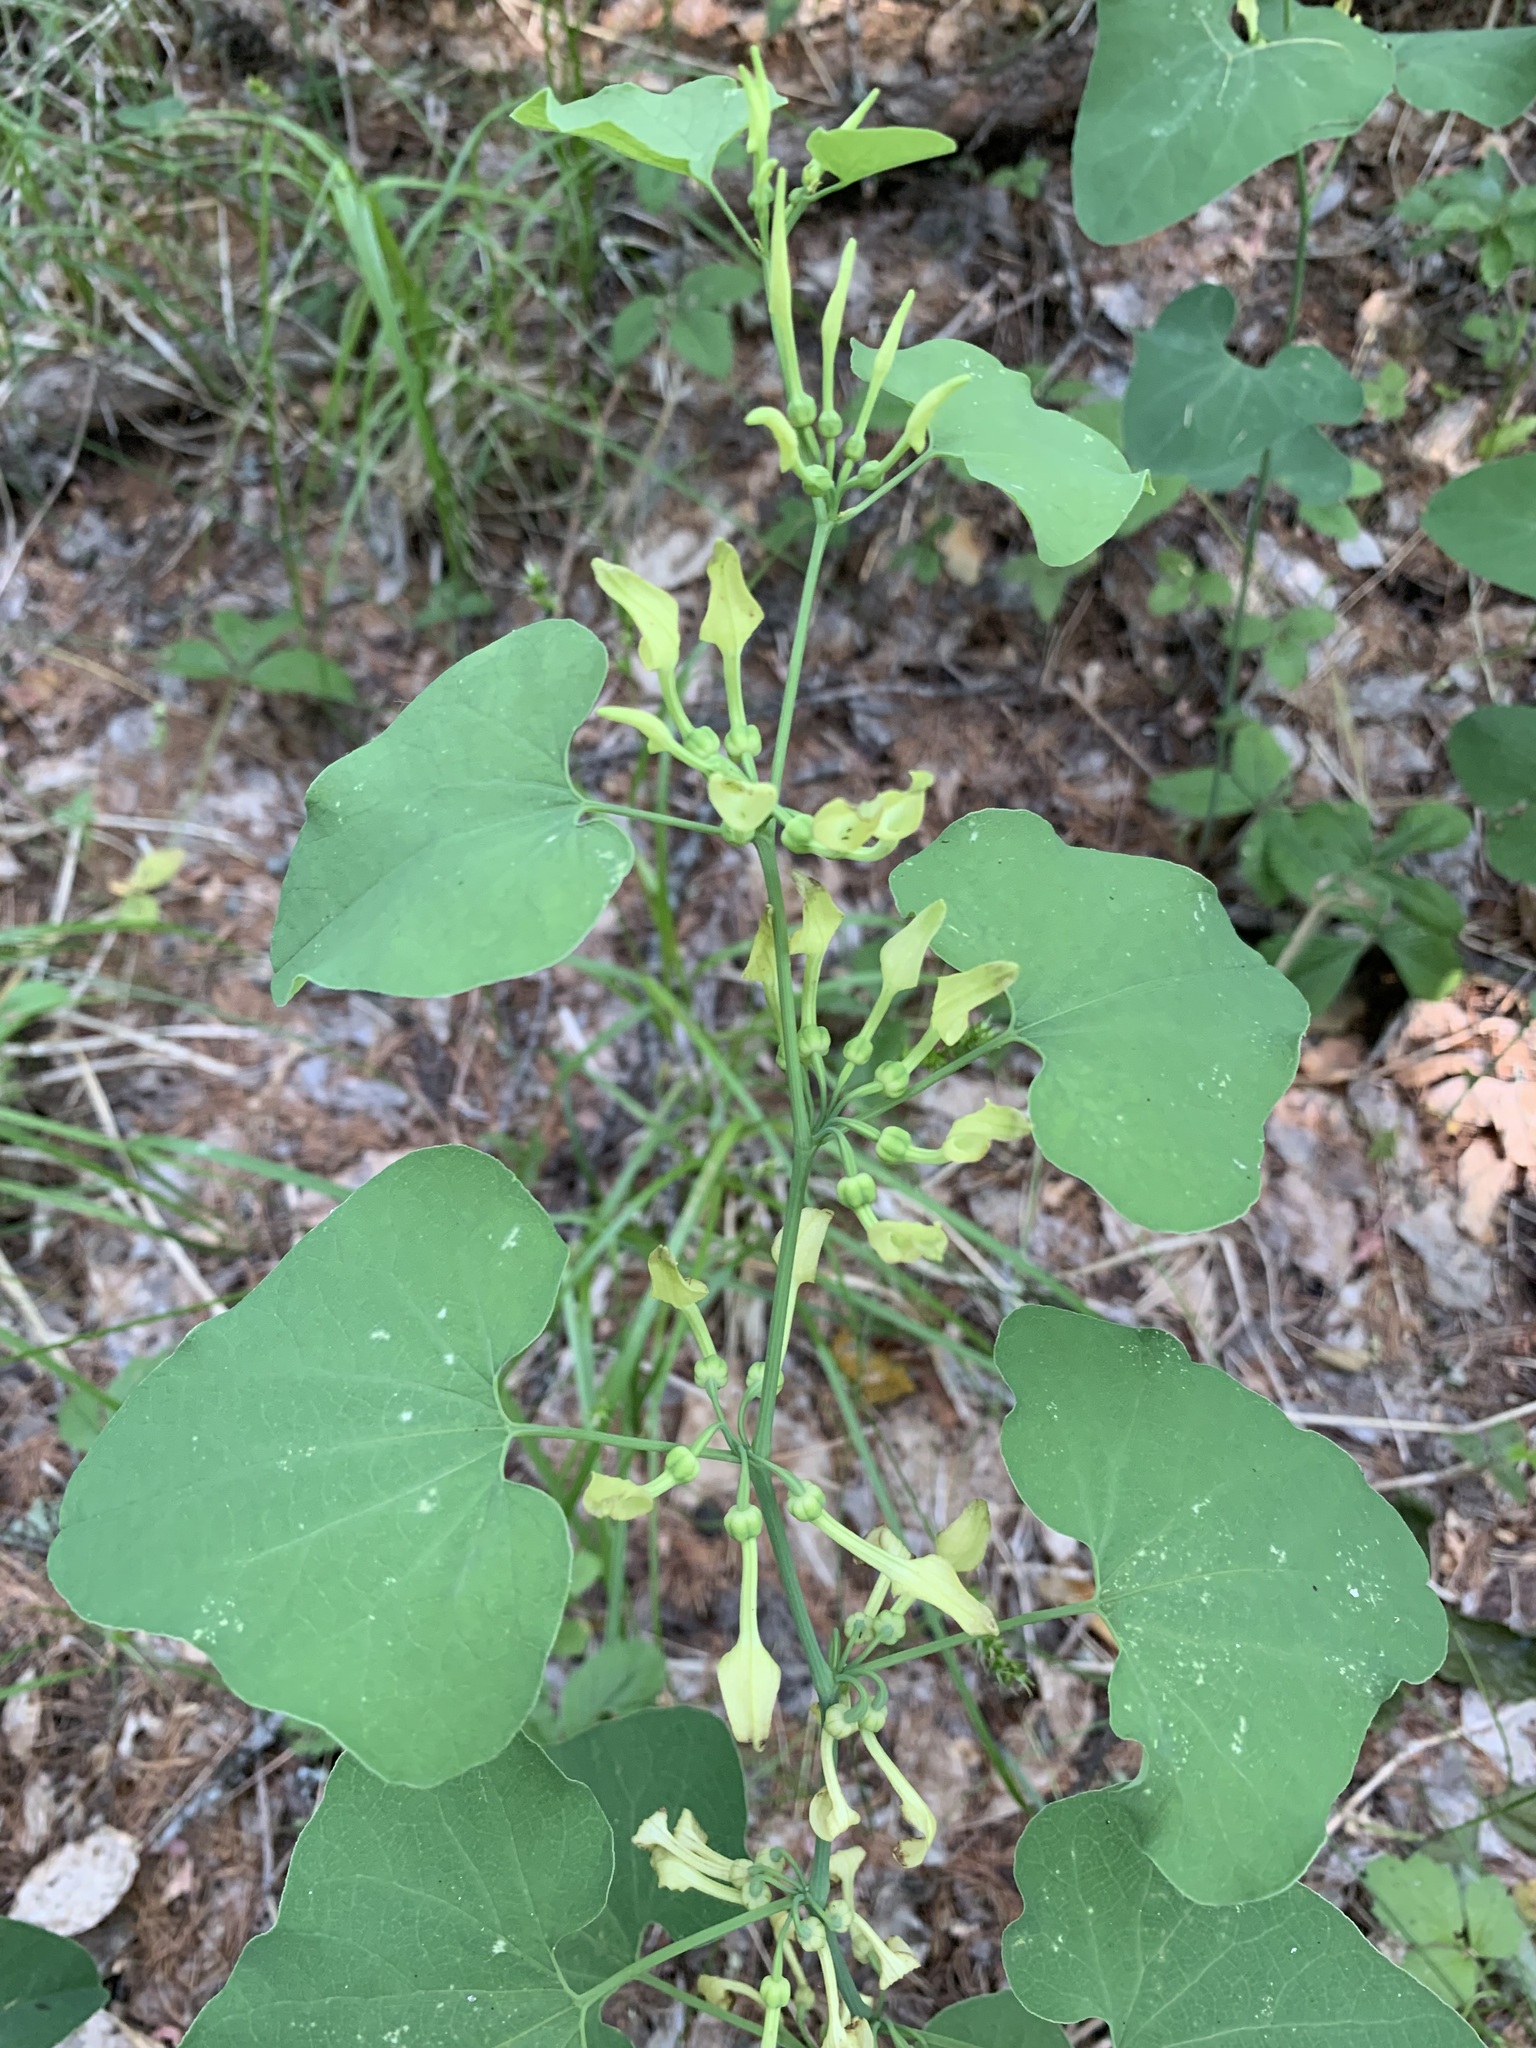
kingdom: Plantae
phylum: Tracheophyta
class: Magnoliopsida
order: Piperales
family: Aristolochiaceae
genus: Aristolochia
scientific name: Aristolochia clematitis
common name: Birthwort
